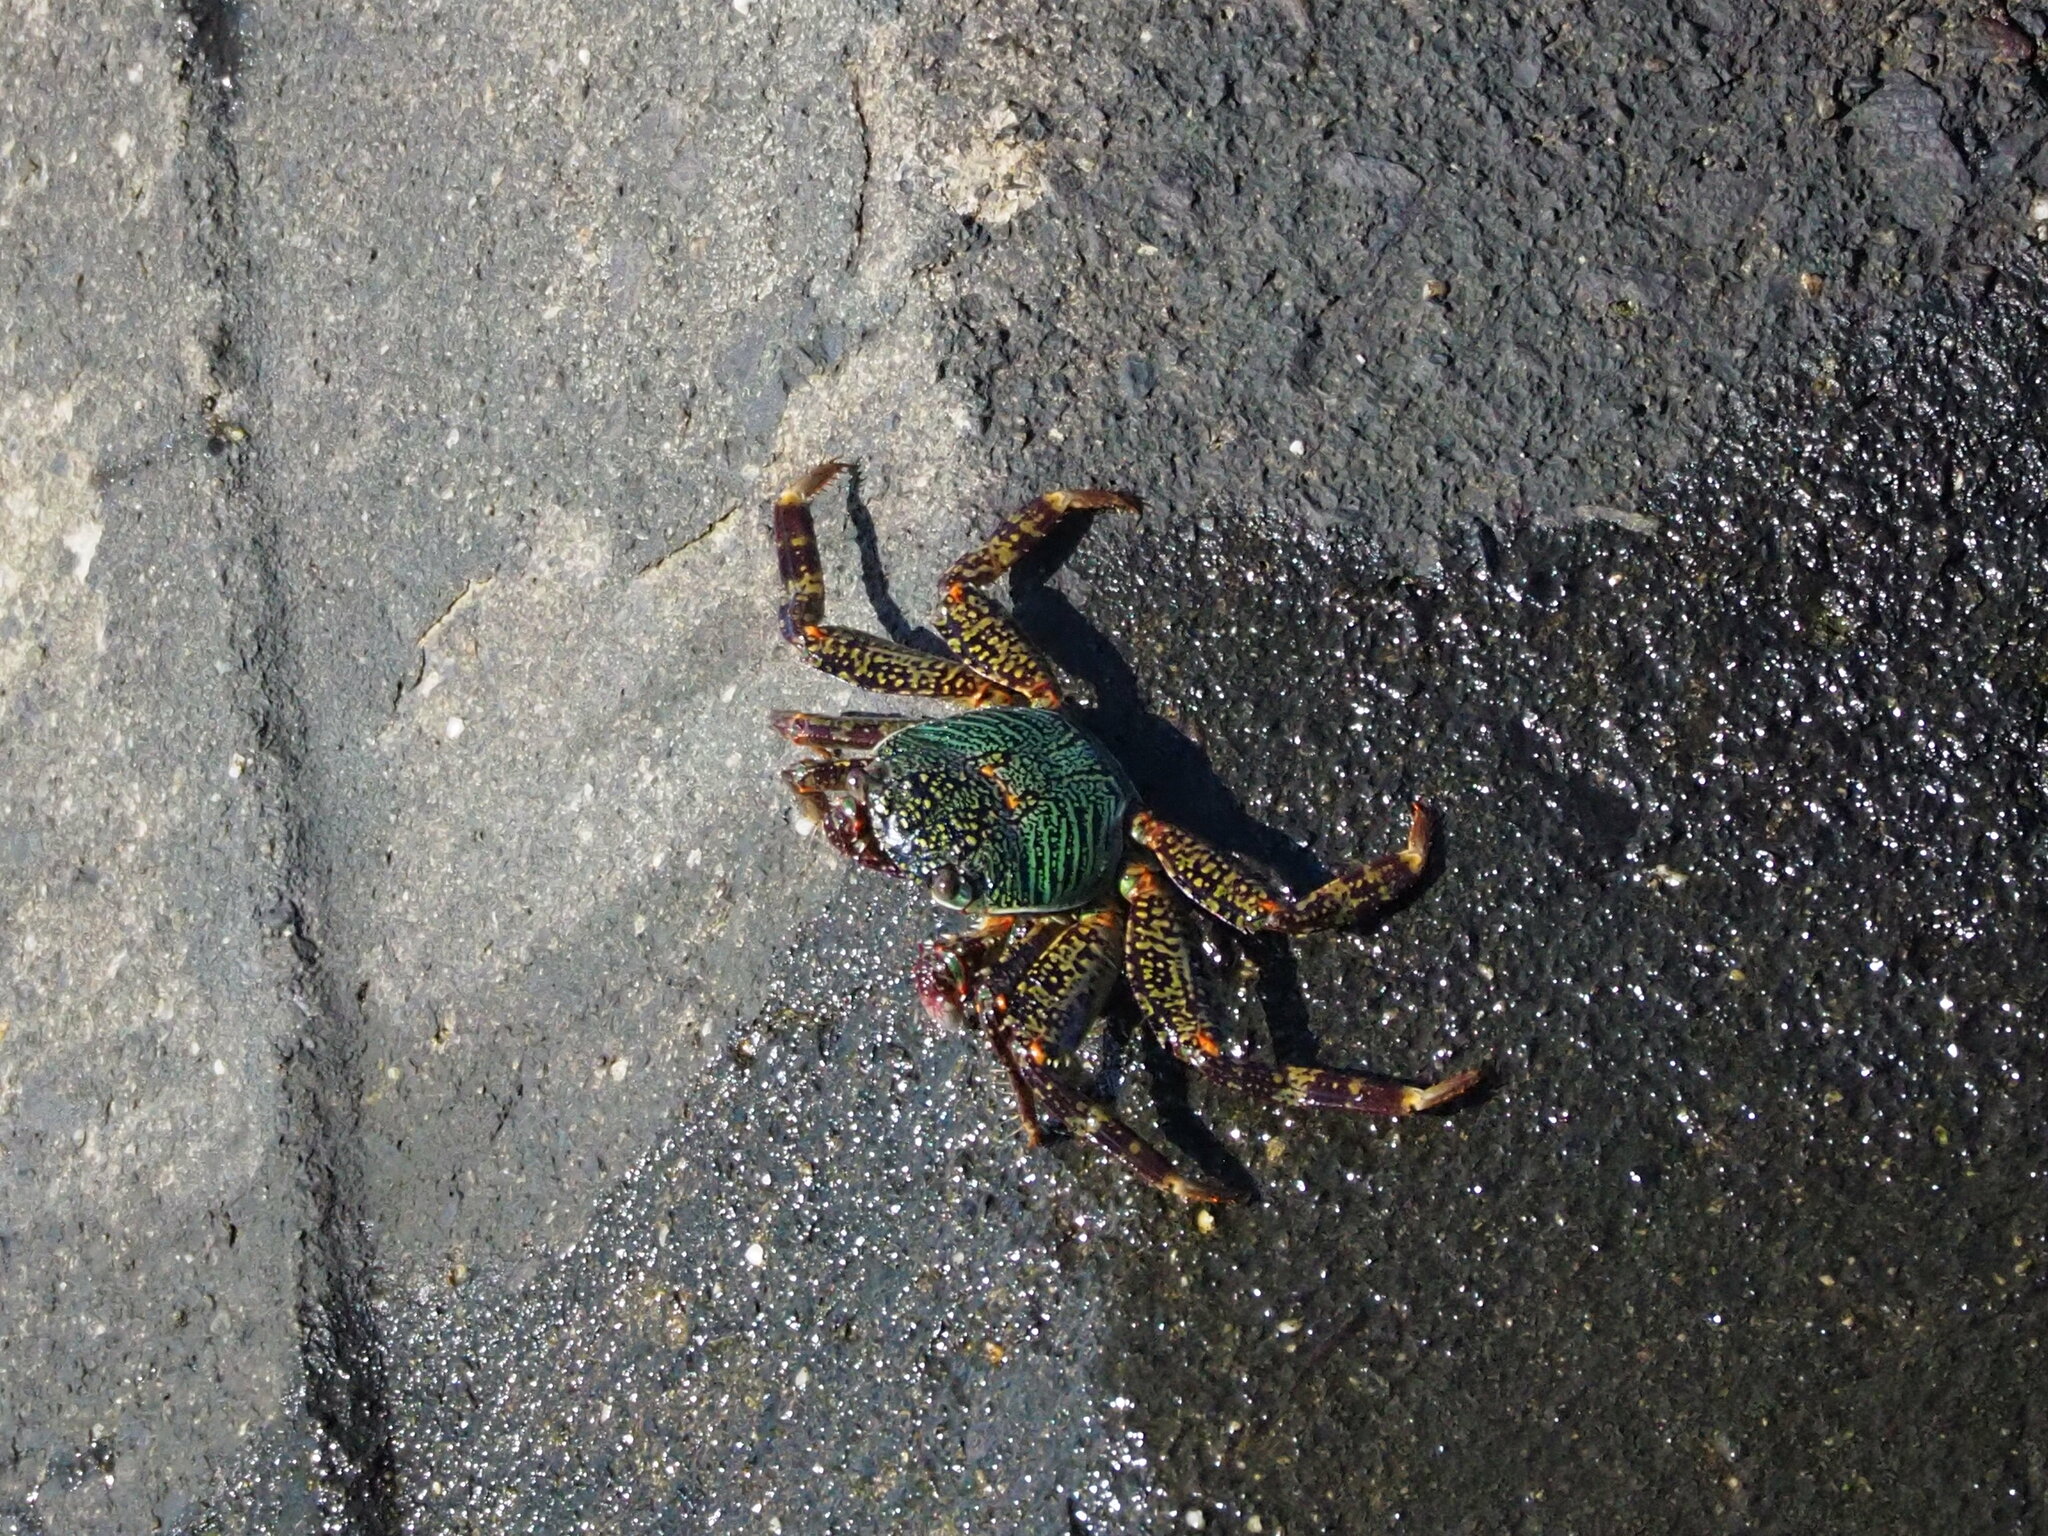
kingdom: Animalia
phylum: Arthropoda
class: Malacostraca
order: Decapoda
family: Grapsidae
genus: Grapsus
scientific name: Grapsus albolineatus
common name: Mottled lightfoot crab
